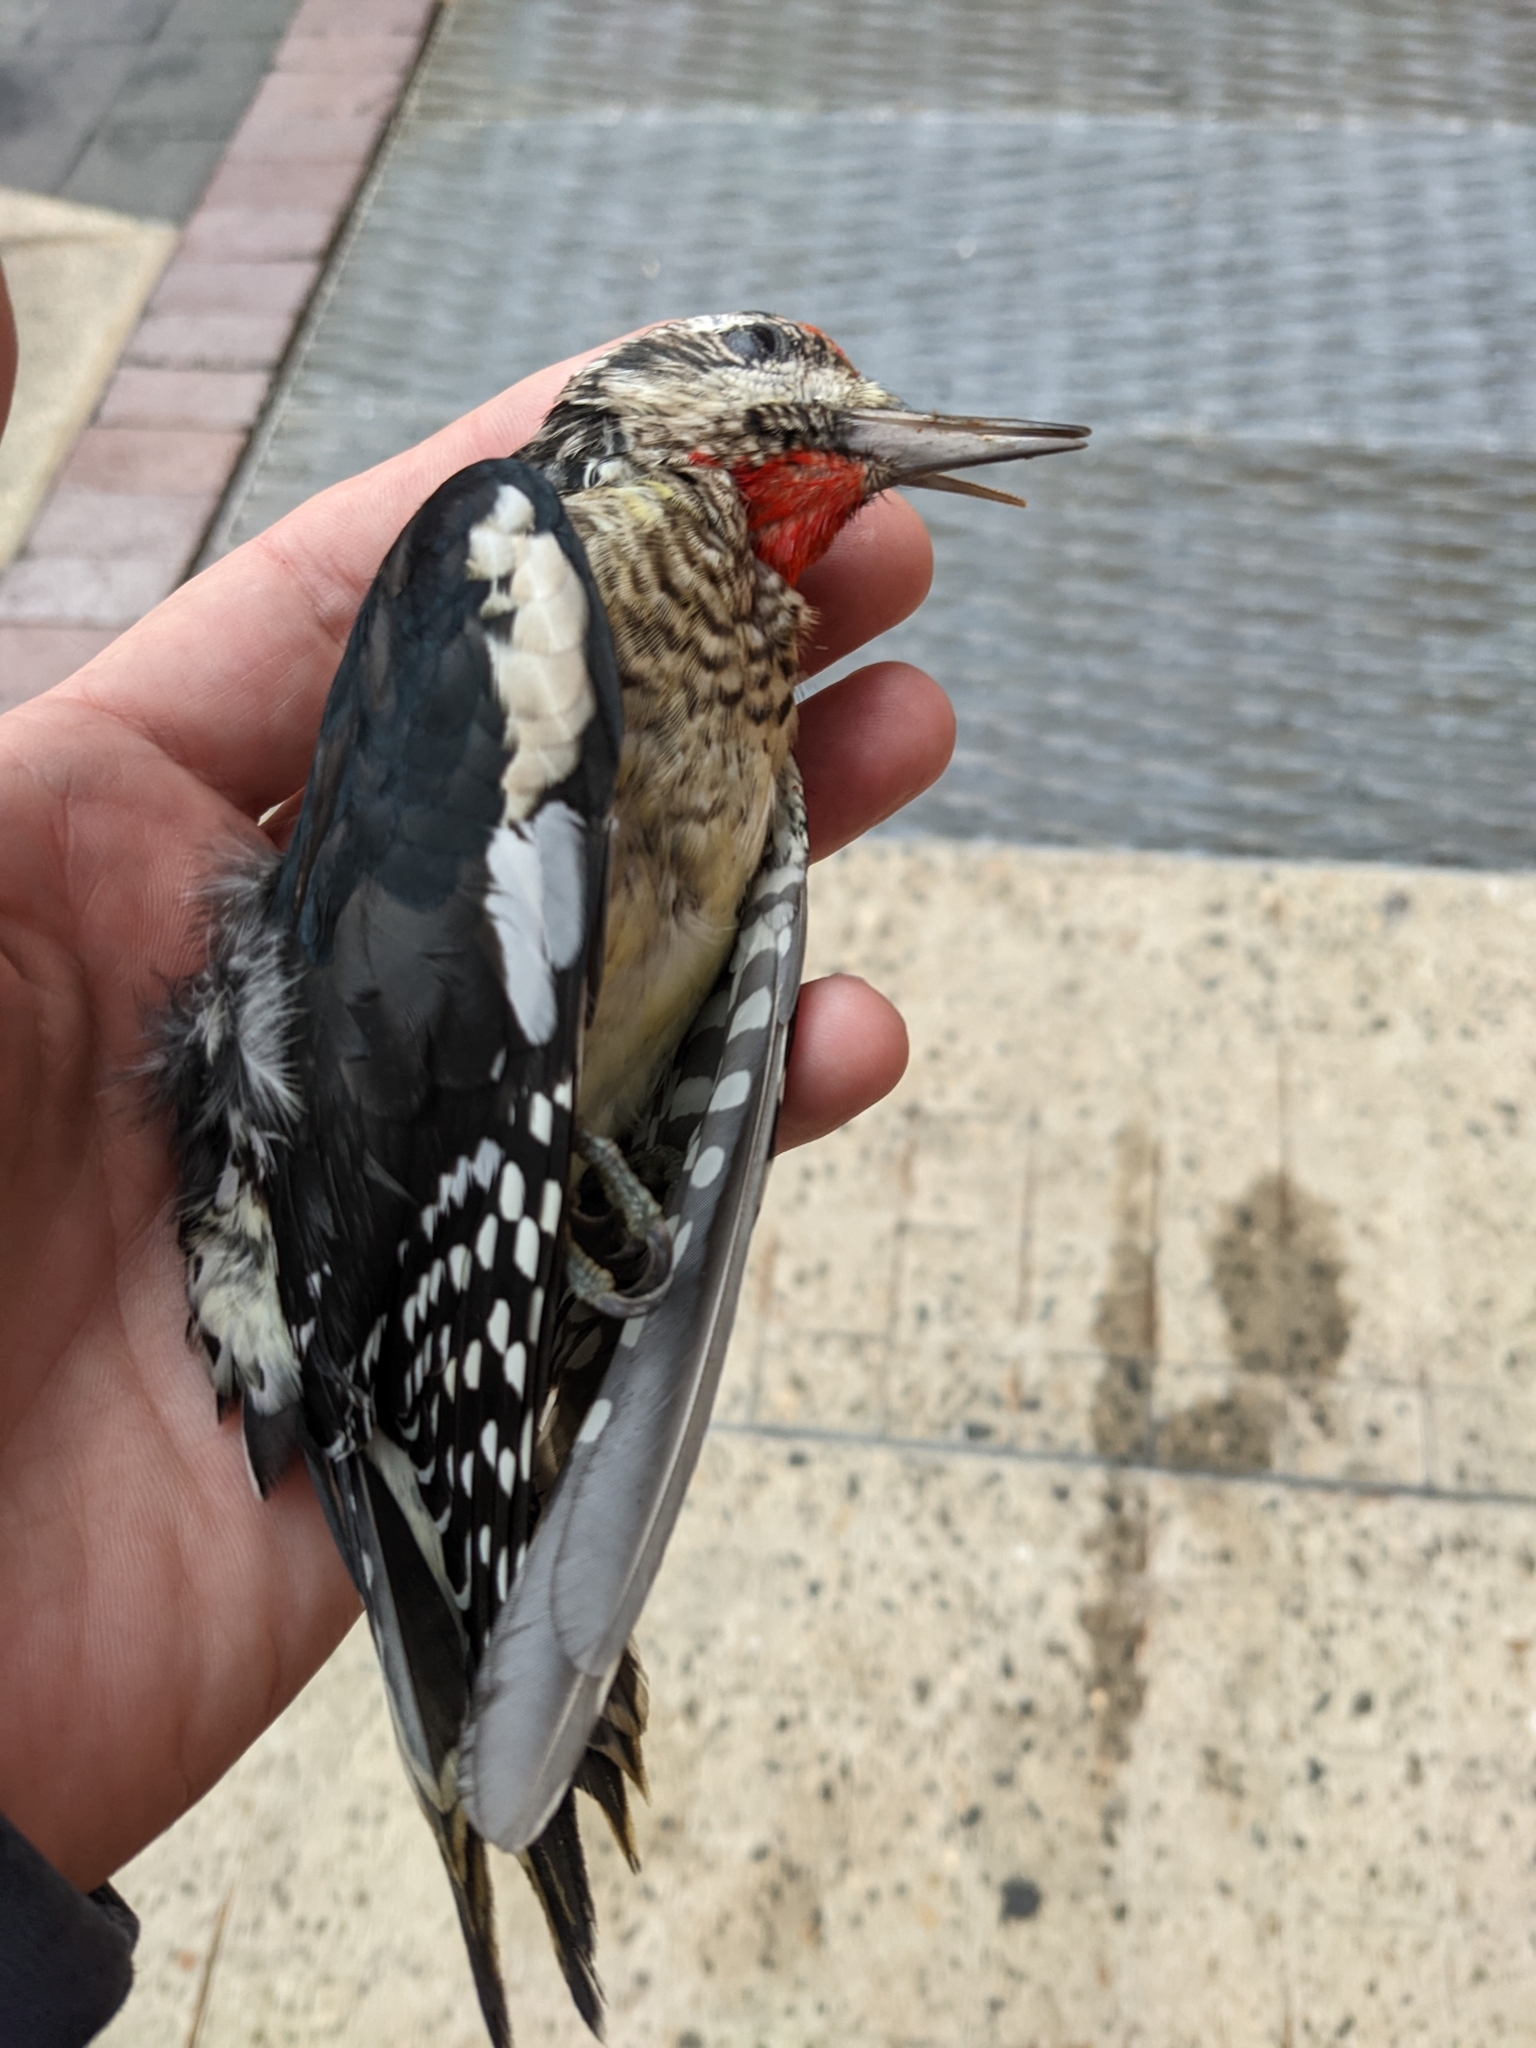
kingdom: Animalia
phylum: Chordata
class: Aves
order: Piciformes
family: Picidae
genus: Sphyrapicus
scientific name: Sphyrapicus varius
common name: Yellow-bellied sapsucker
